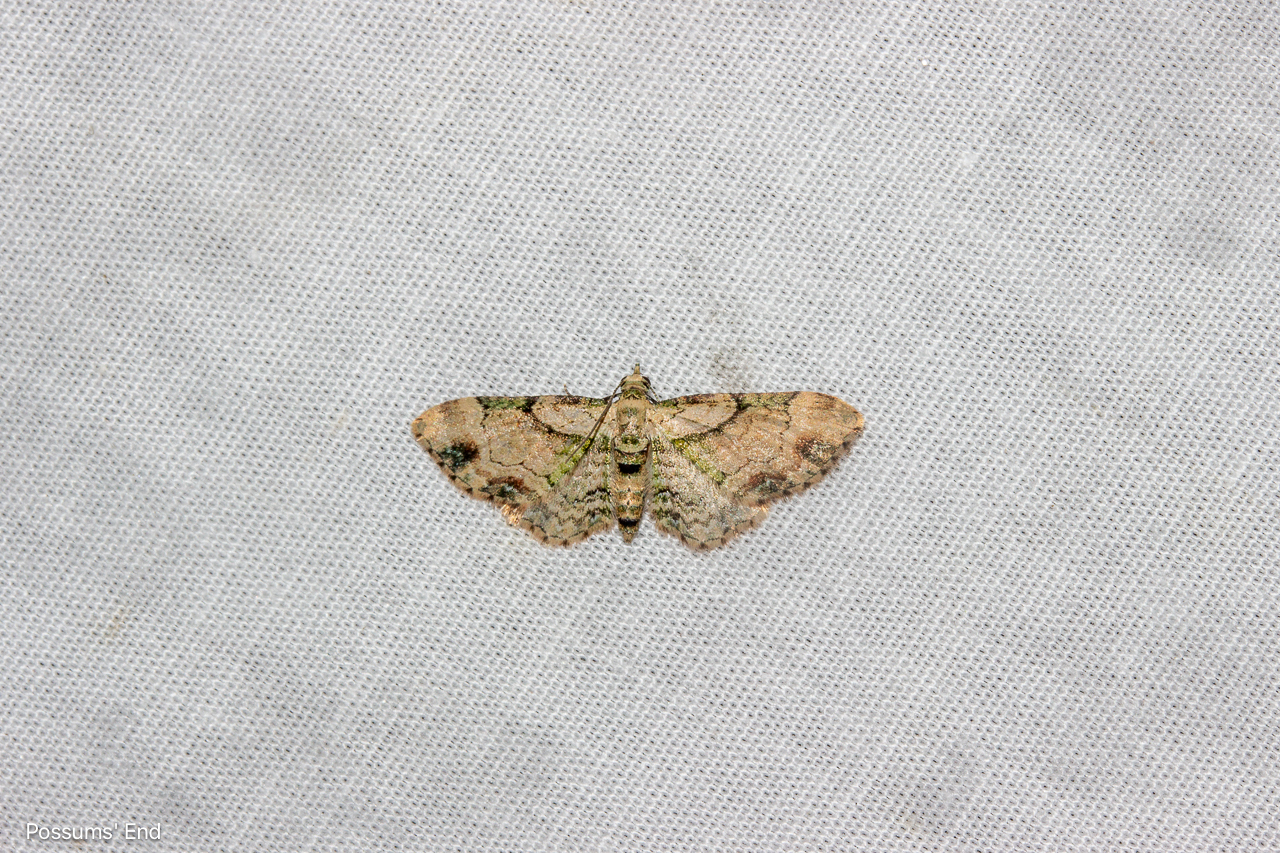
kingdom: Animalia
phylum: Arthropoda
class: Insecta
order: Lepidoptera
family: Geometridae
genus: Chloroclystis
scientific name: Chloroclystis
